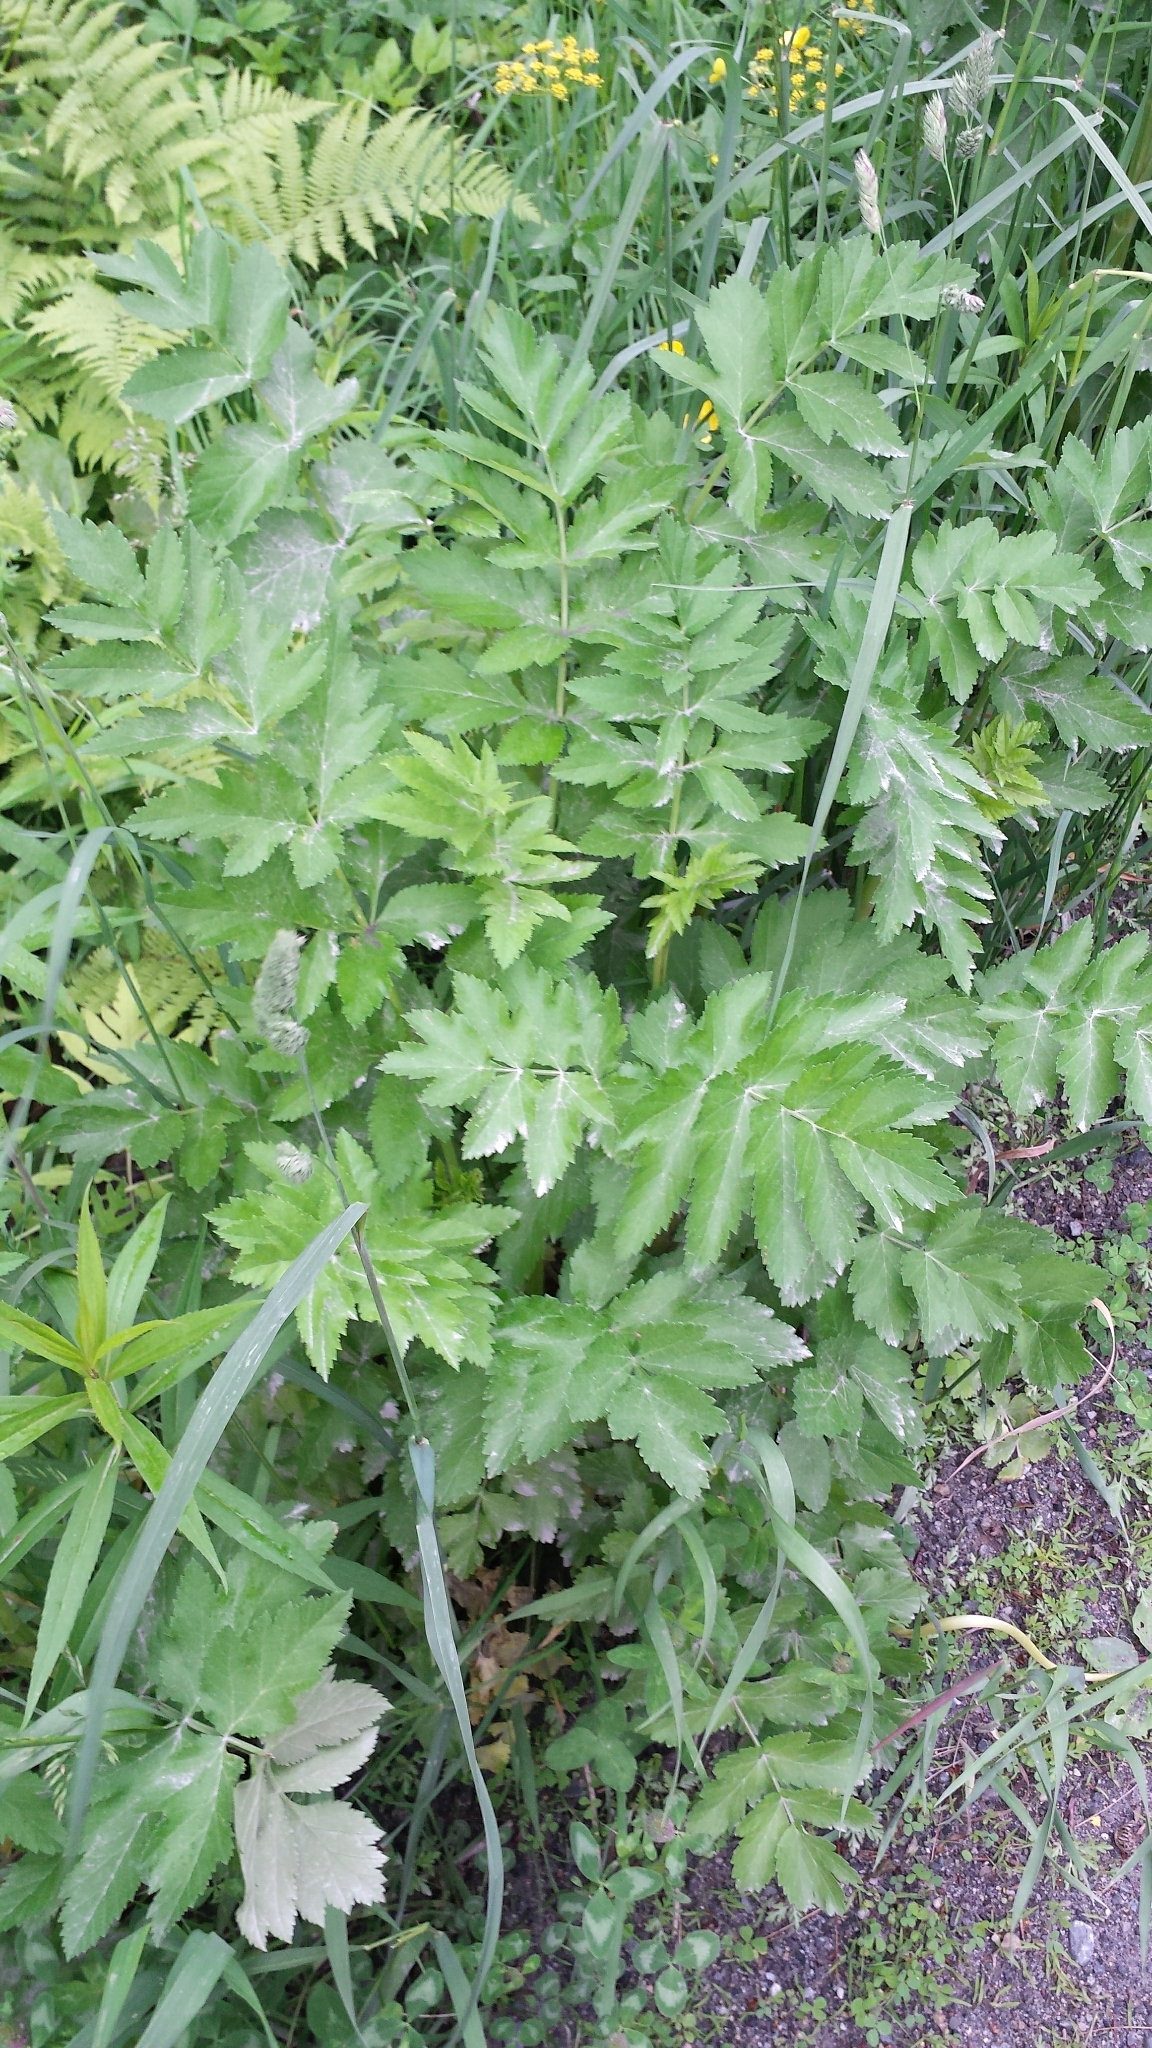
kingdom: Plantae
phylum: Tracheophyta
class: Magnoliopsida
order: Apiales
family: Apiaceae
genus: Pastinaca
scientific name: Pastinaca sativa
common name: Wild parsnip
